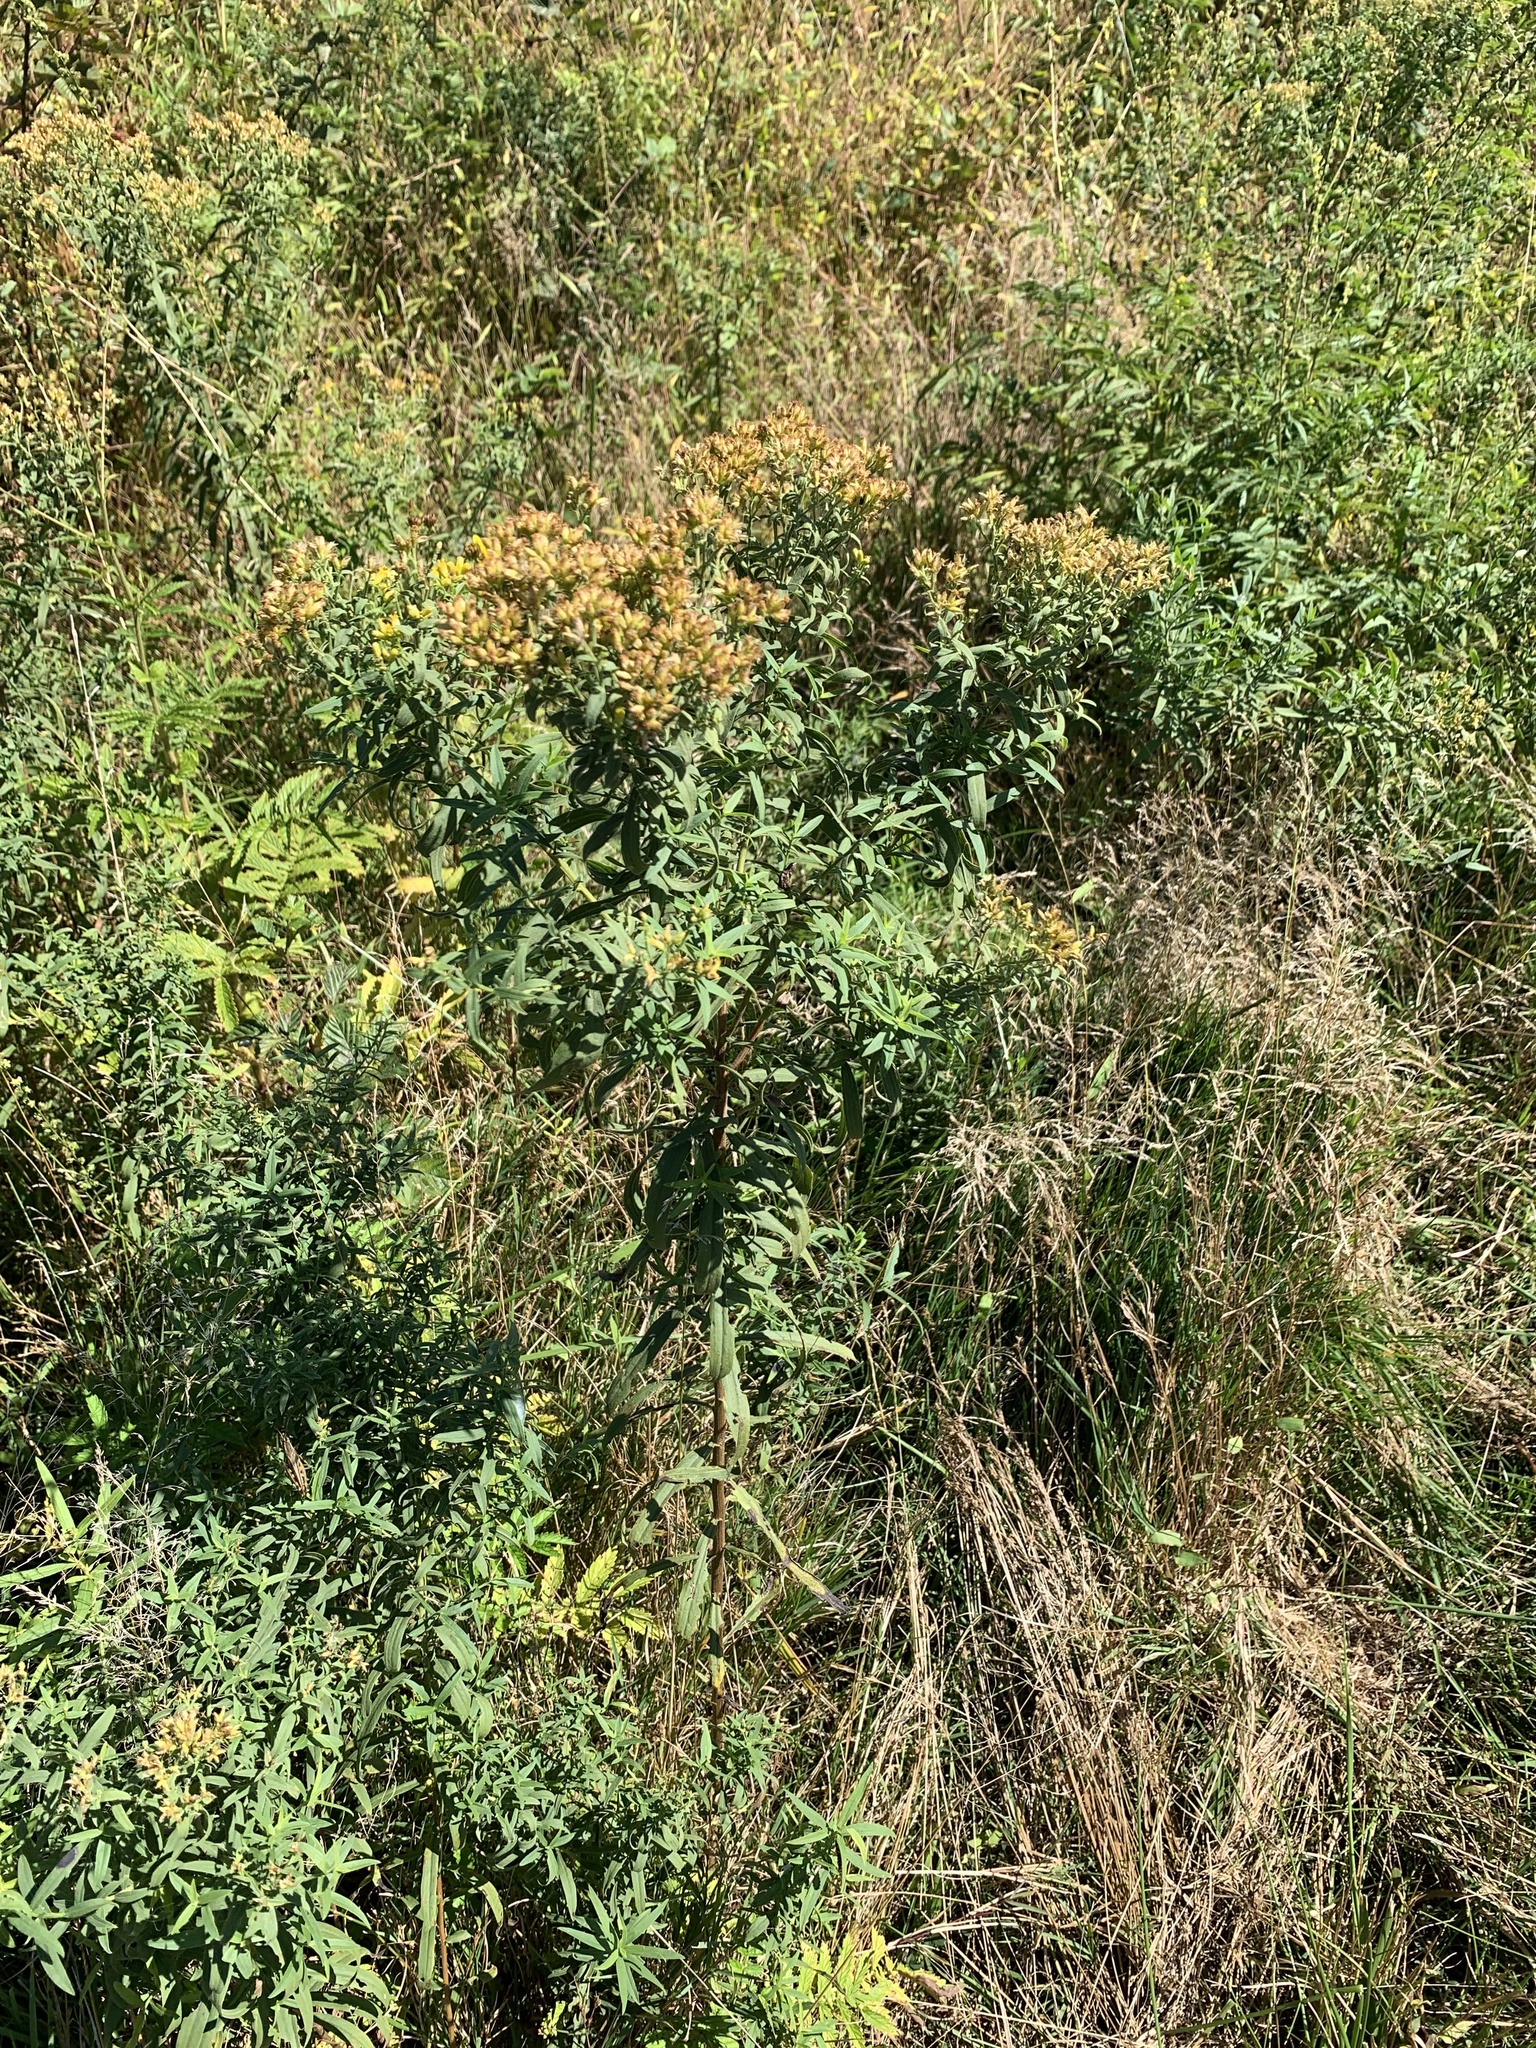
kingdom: Plantae
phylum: Tracheophyta
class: Magnoliopsida
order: Asterales
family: Asteraceae
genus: Euthamia
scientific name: Euthamia graminifolia
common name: Common goldentop
